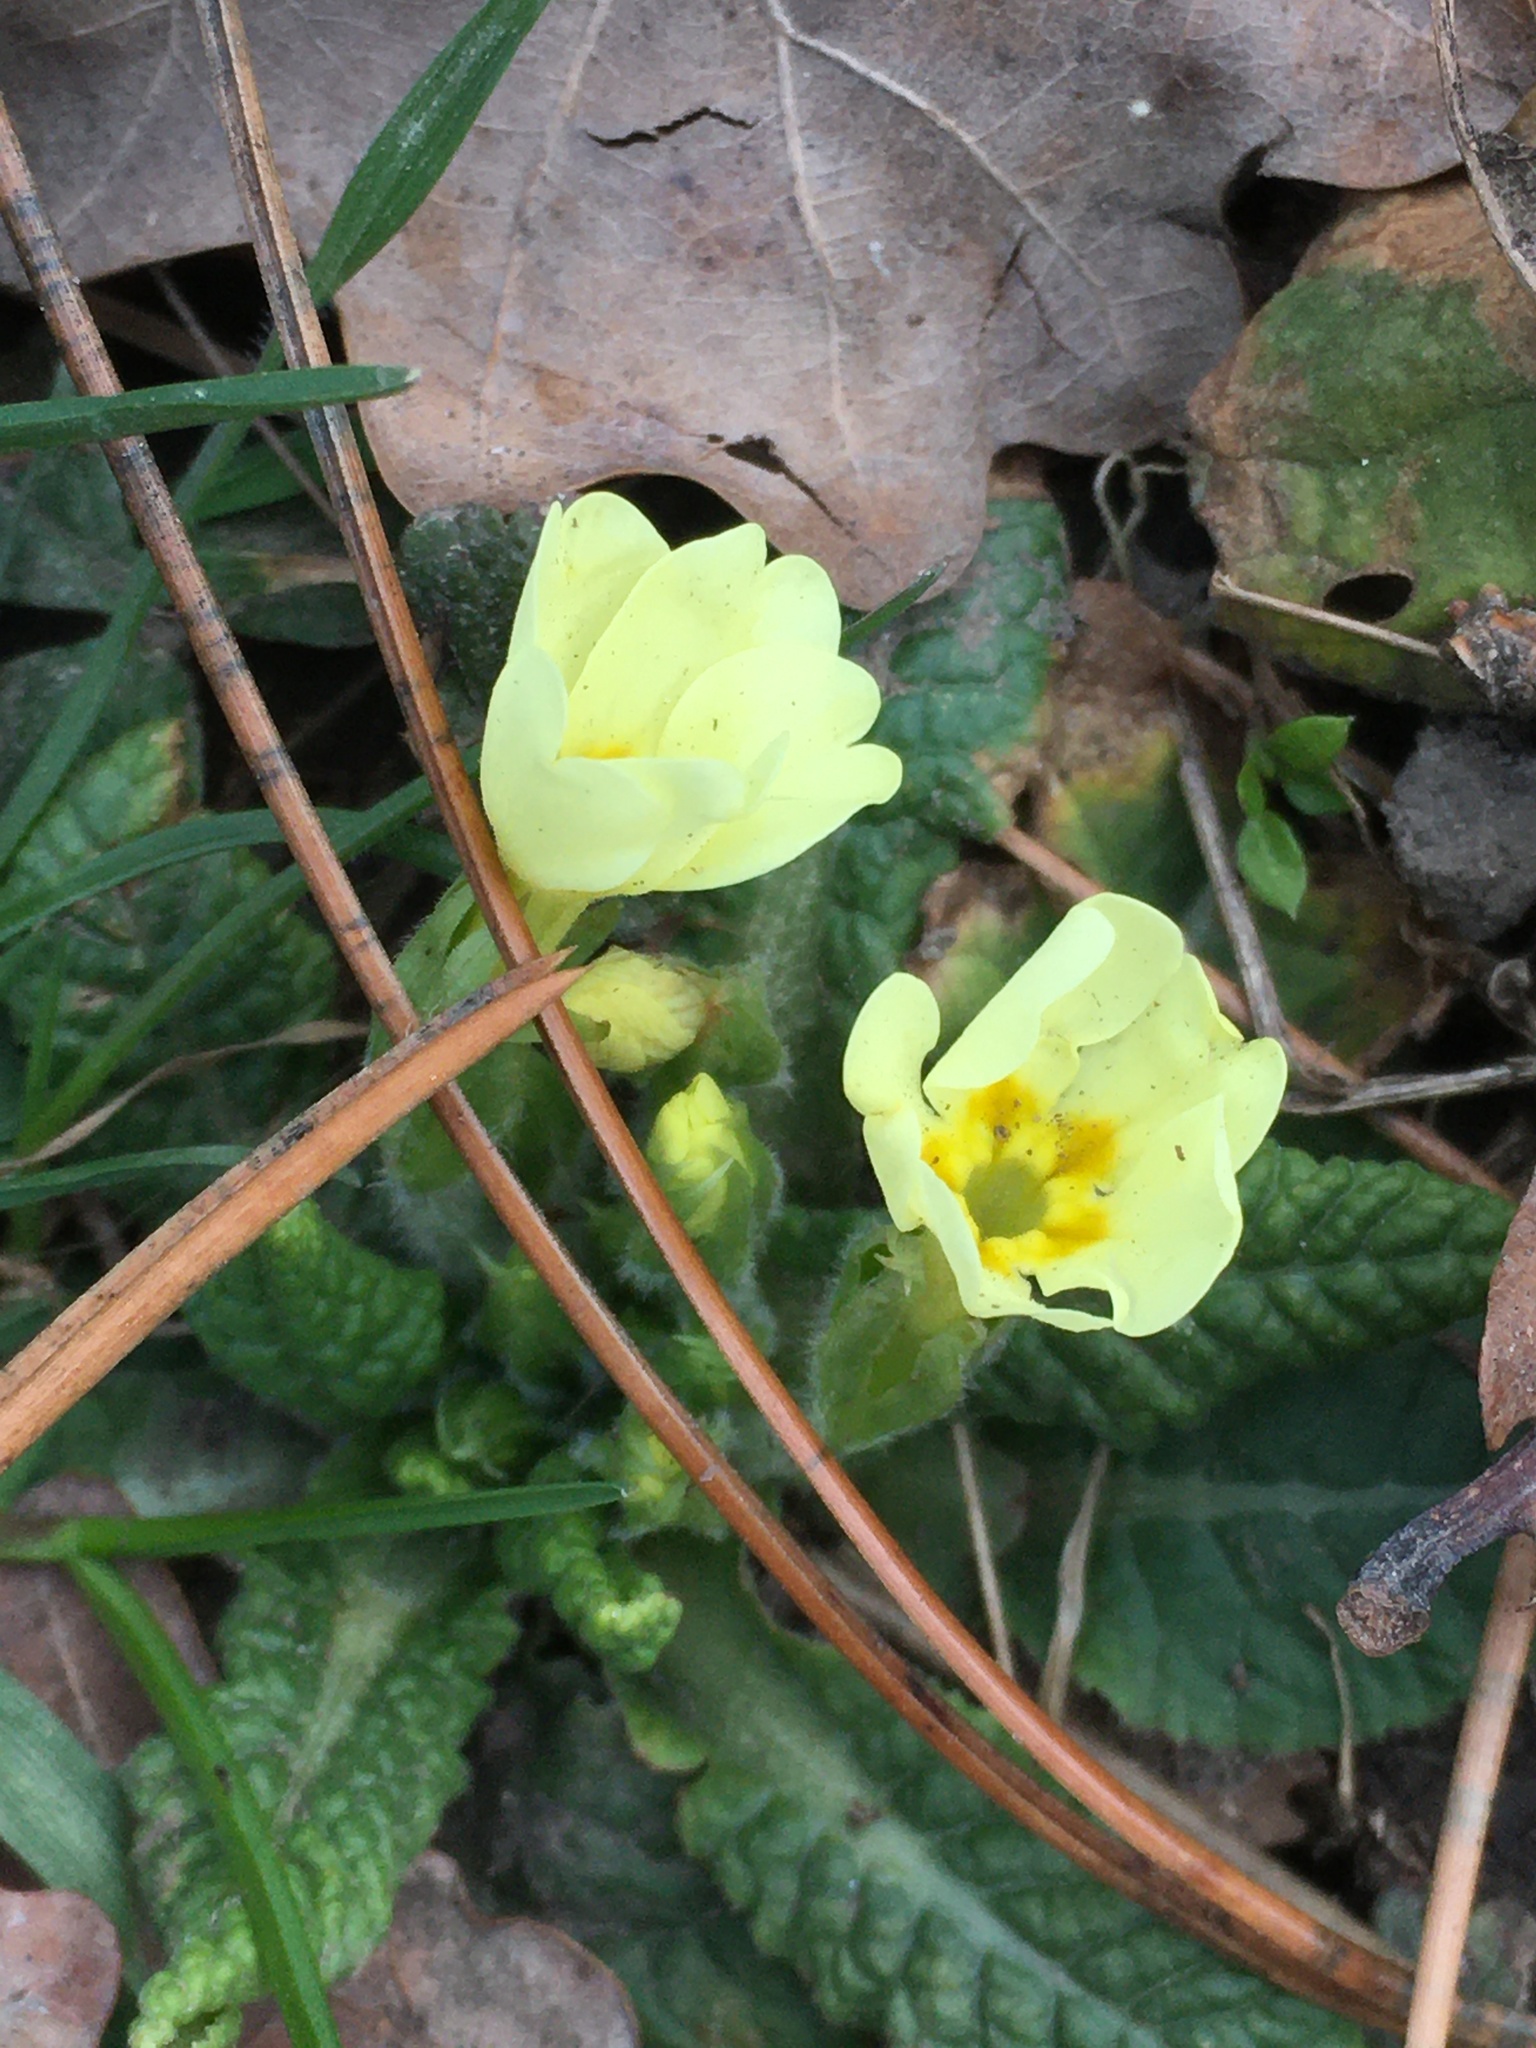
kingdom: Plantae
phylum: Tracheophyta
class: Magnoliopsida
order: Ericales
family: Primulaceae
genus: Primula
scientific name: Primula vulgaris
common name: Primrose
